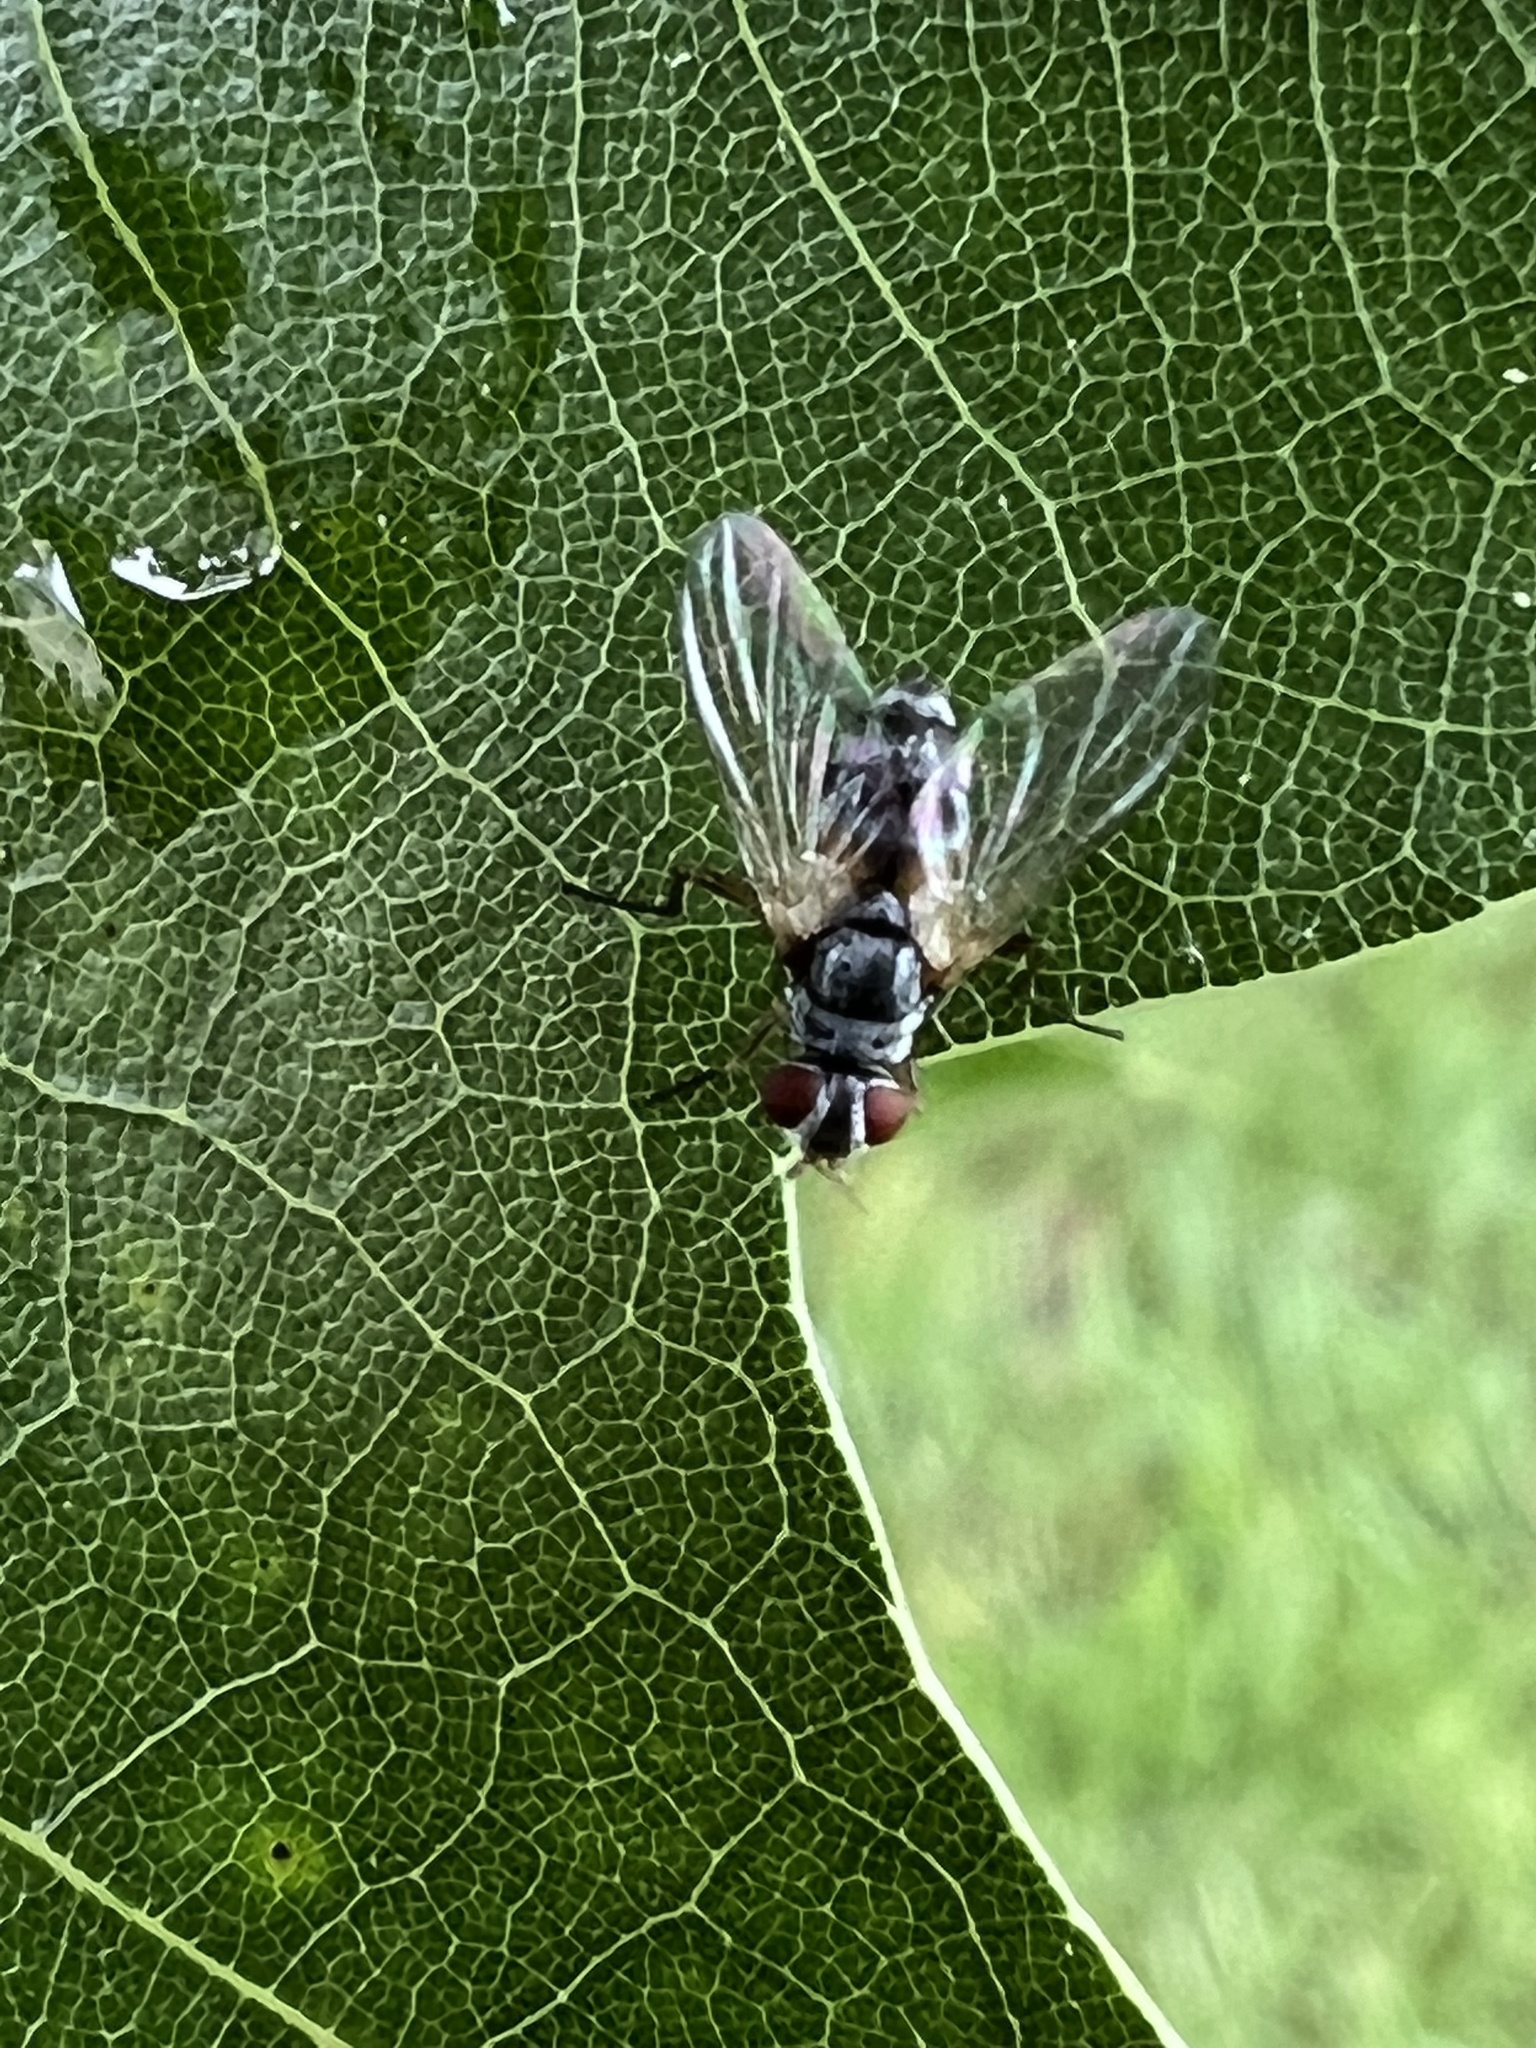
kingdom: Animalia
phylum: Arthropoda
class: Insecta
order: Diptera
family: Tachinidae
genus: Cholomyia
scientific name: Cholomyia inaequipes
